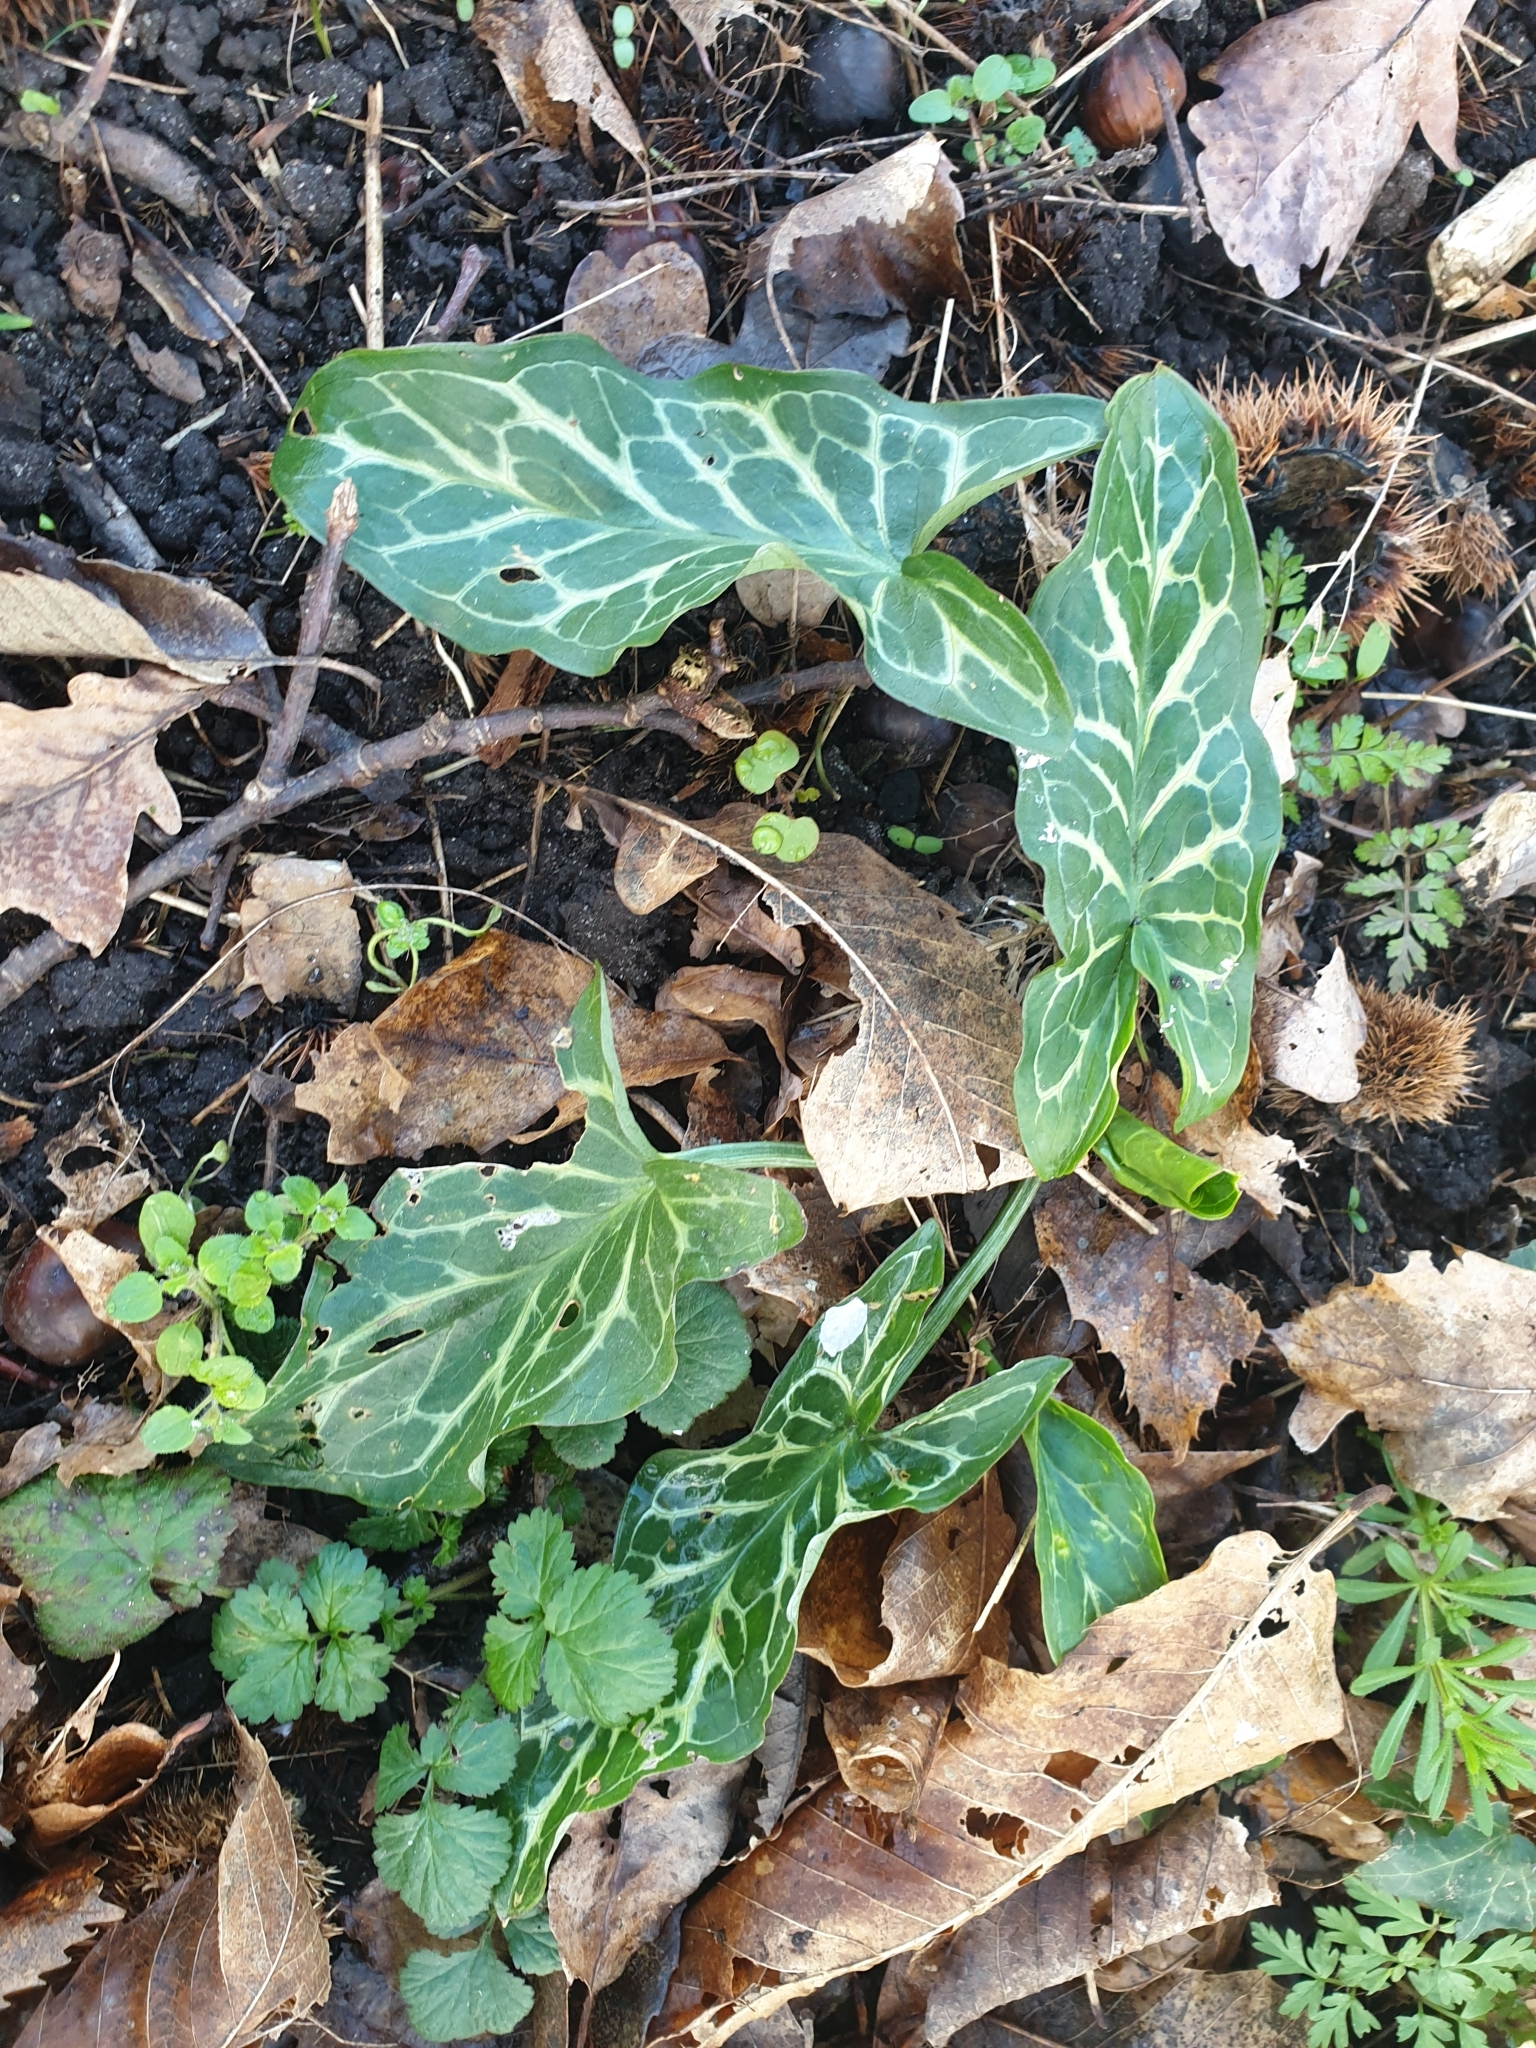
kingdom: Plantae
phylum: Tracheophyta
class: Liliopsida
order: Alismatales
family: Araceae
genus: Arum
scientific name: Arum italicum
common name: Italian lords-and-ladies
